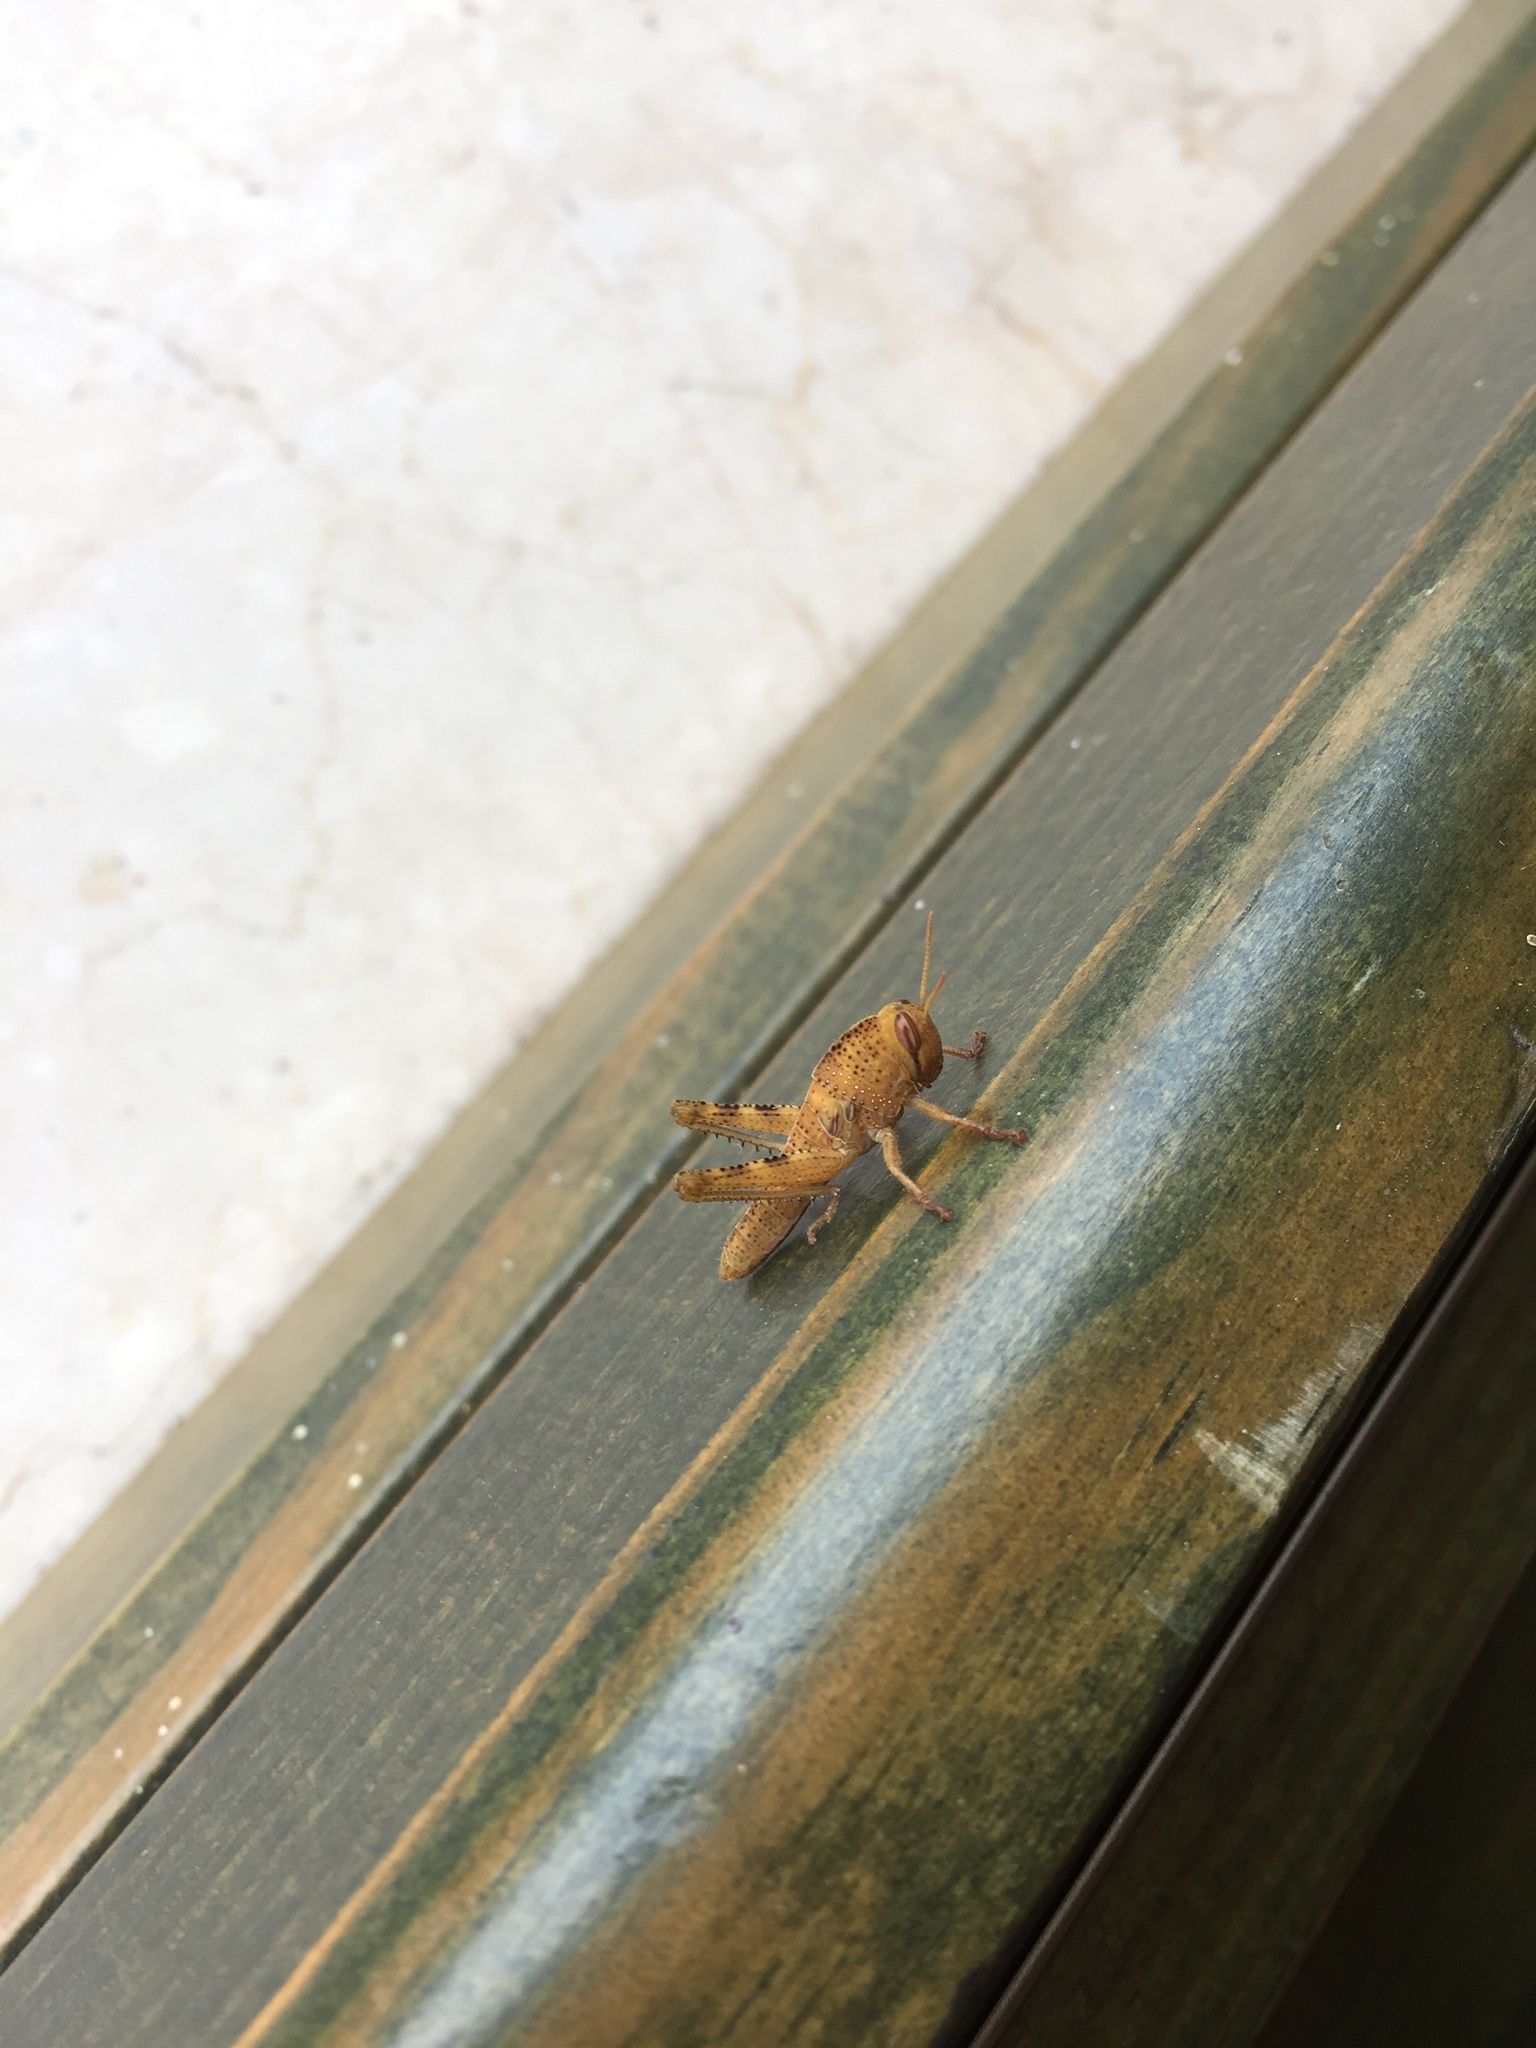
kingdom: Animalia
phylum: Arthropoda
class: Insecta
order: Orthoptera
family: Acrididae
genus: Anacridium
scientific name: Anacridium aegyptium
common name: Egyptian grasshopper
